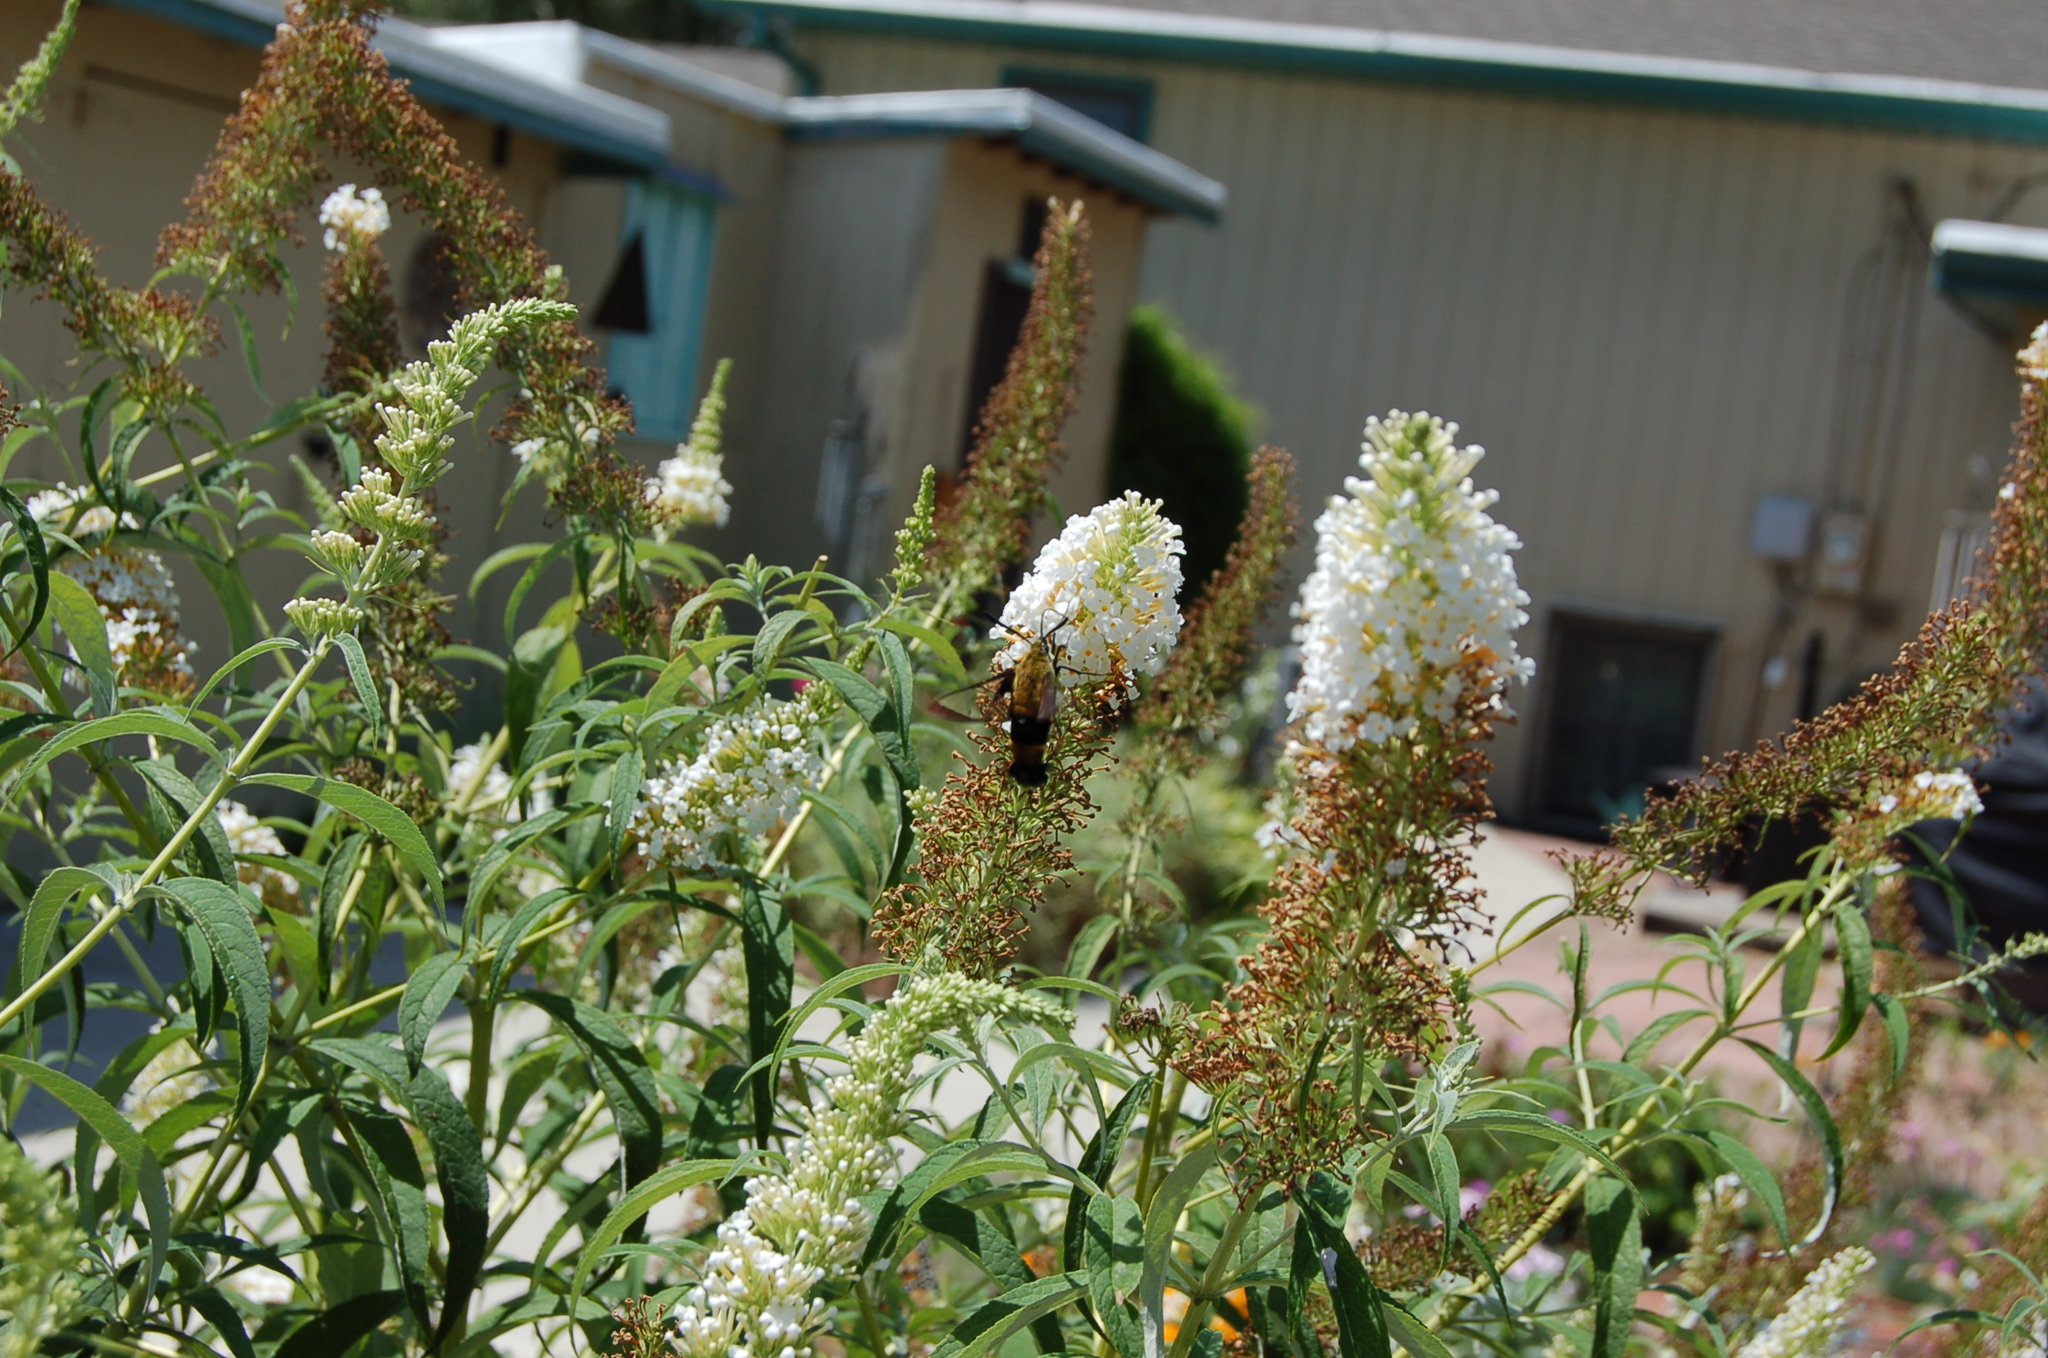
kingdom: Animalia
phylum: Arthropoda
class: Insecta
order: Lepidoptera
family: Sphingidae
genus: Hemaris
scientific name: Hemaris diffinis
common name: Bumblebee moth
